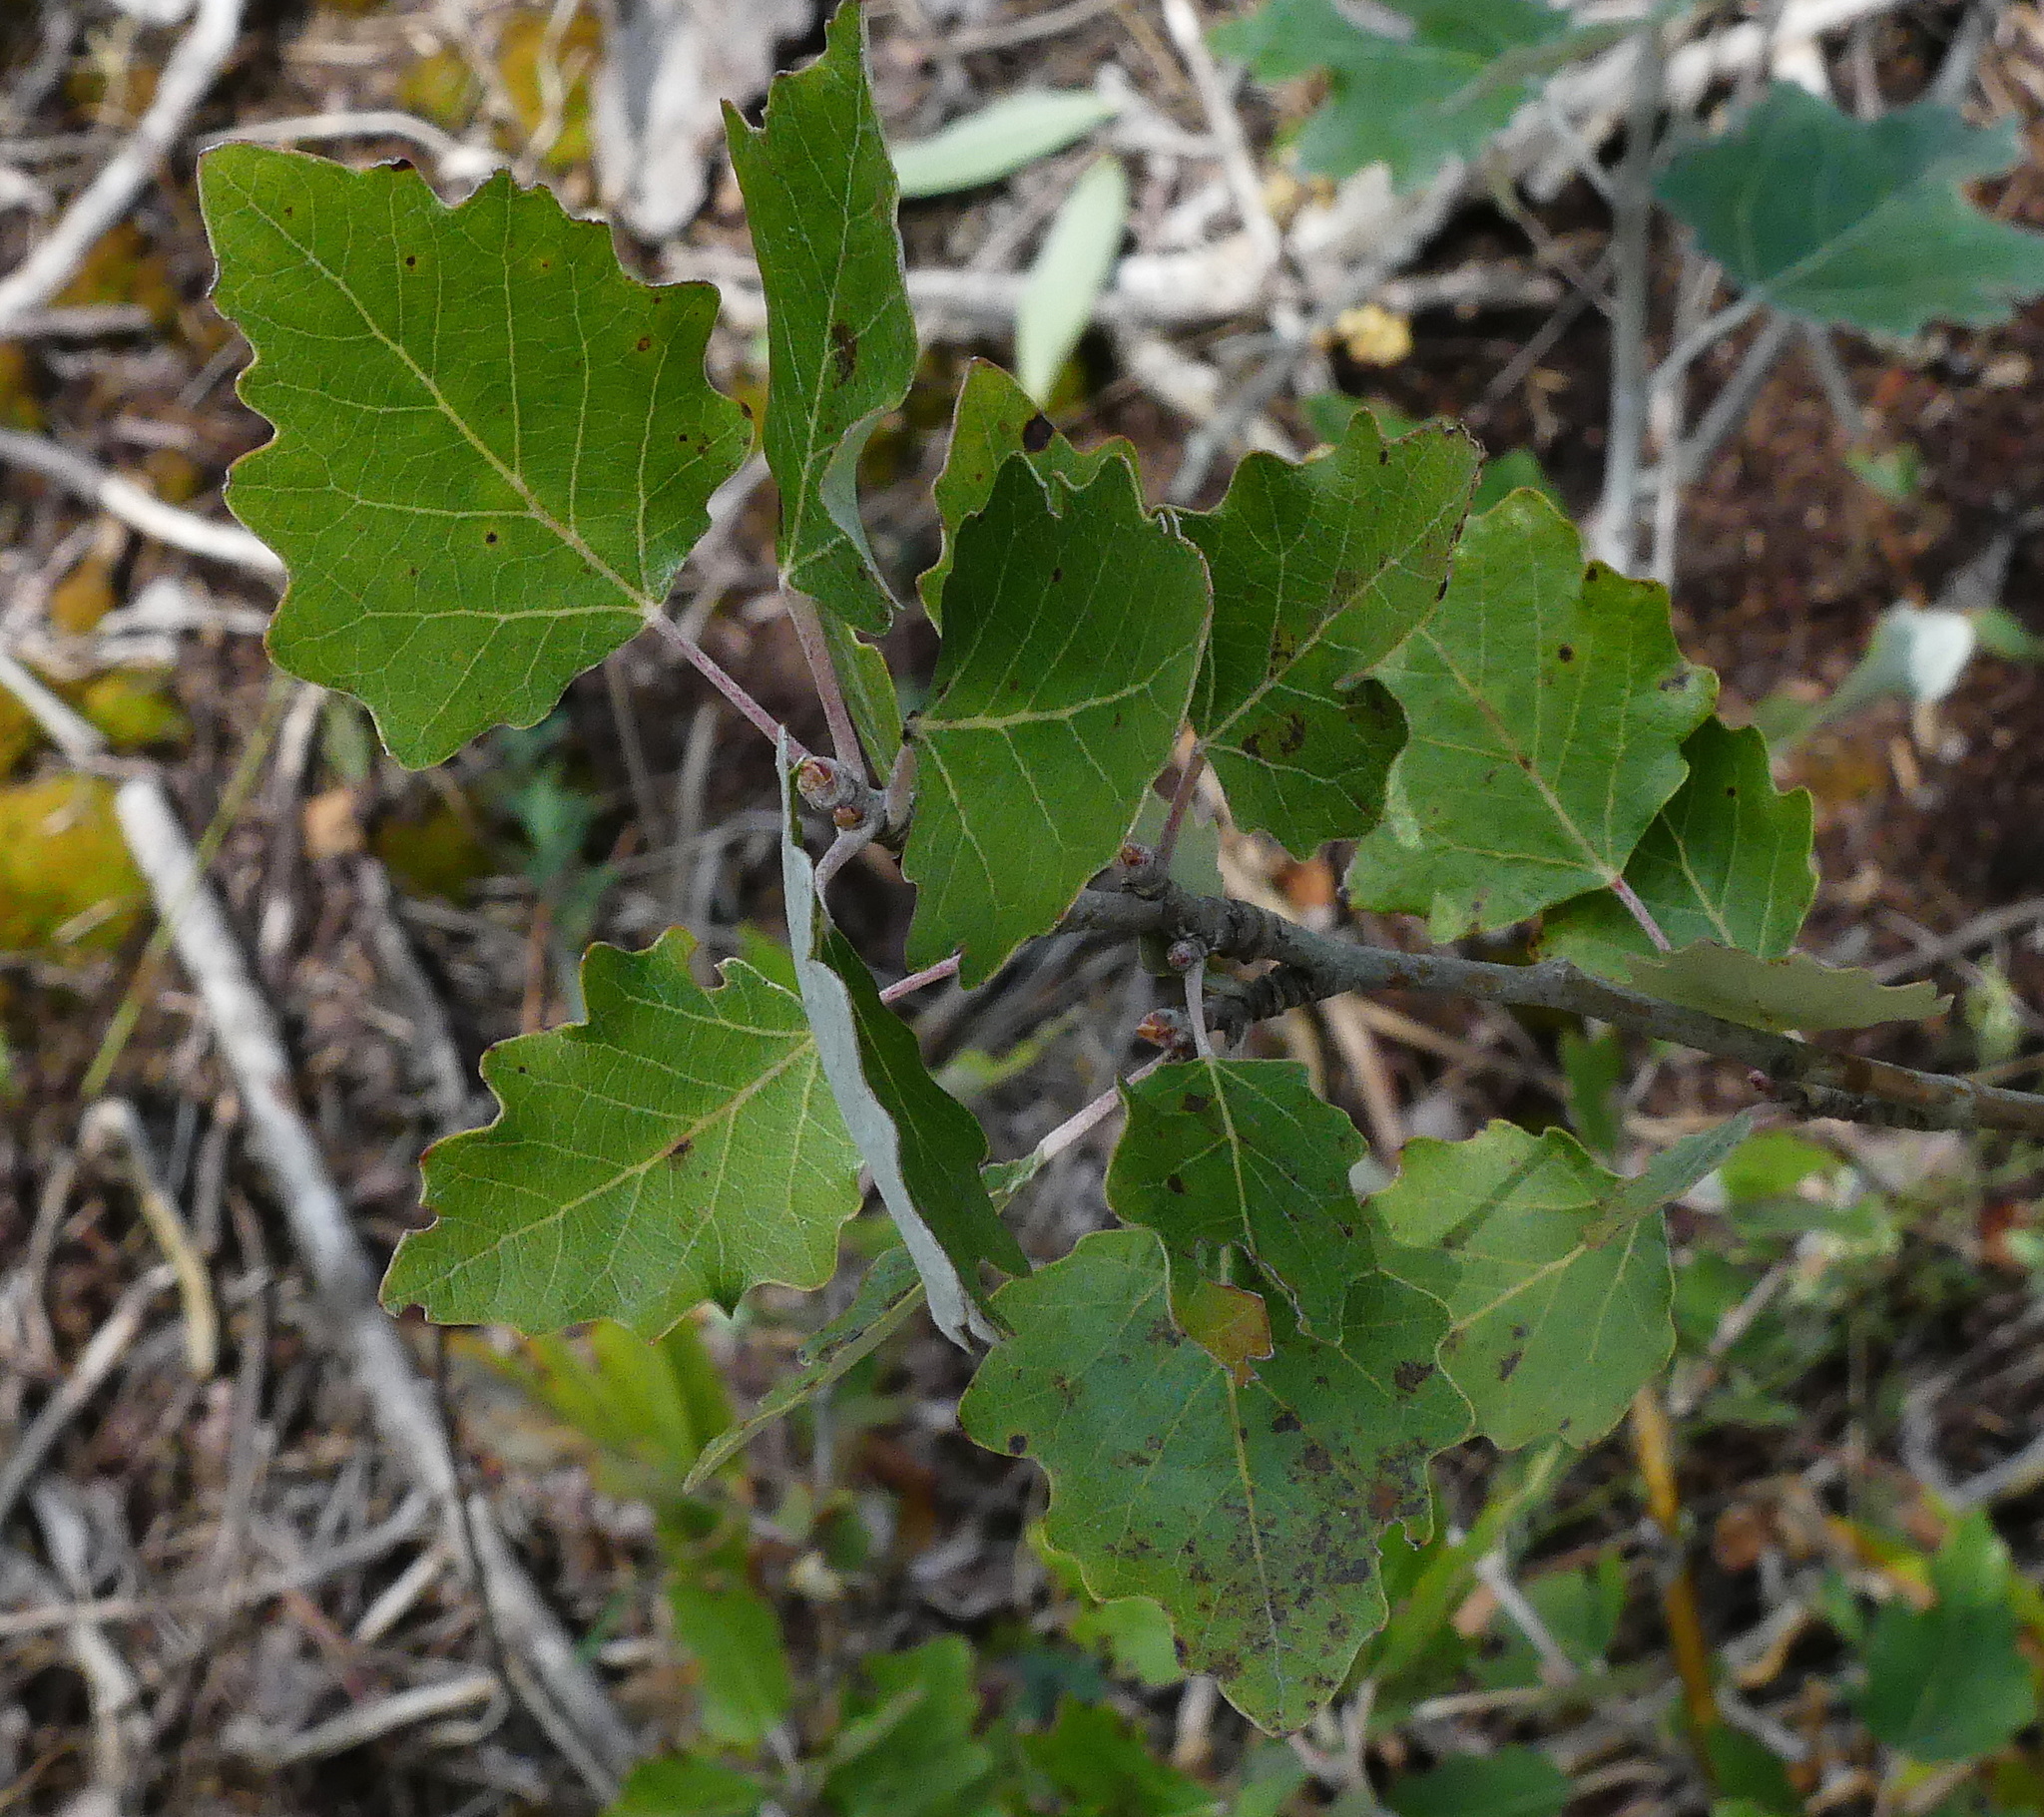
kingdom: Plantae
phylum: Tracheophyta
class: Magnoliopsida
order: Malpighiales
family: Salicaceae
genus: Populus
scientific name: Populus alba
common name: White poplar
